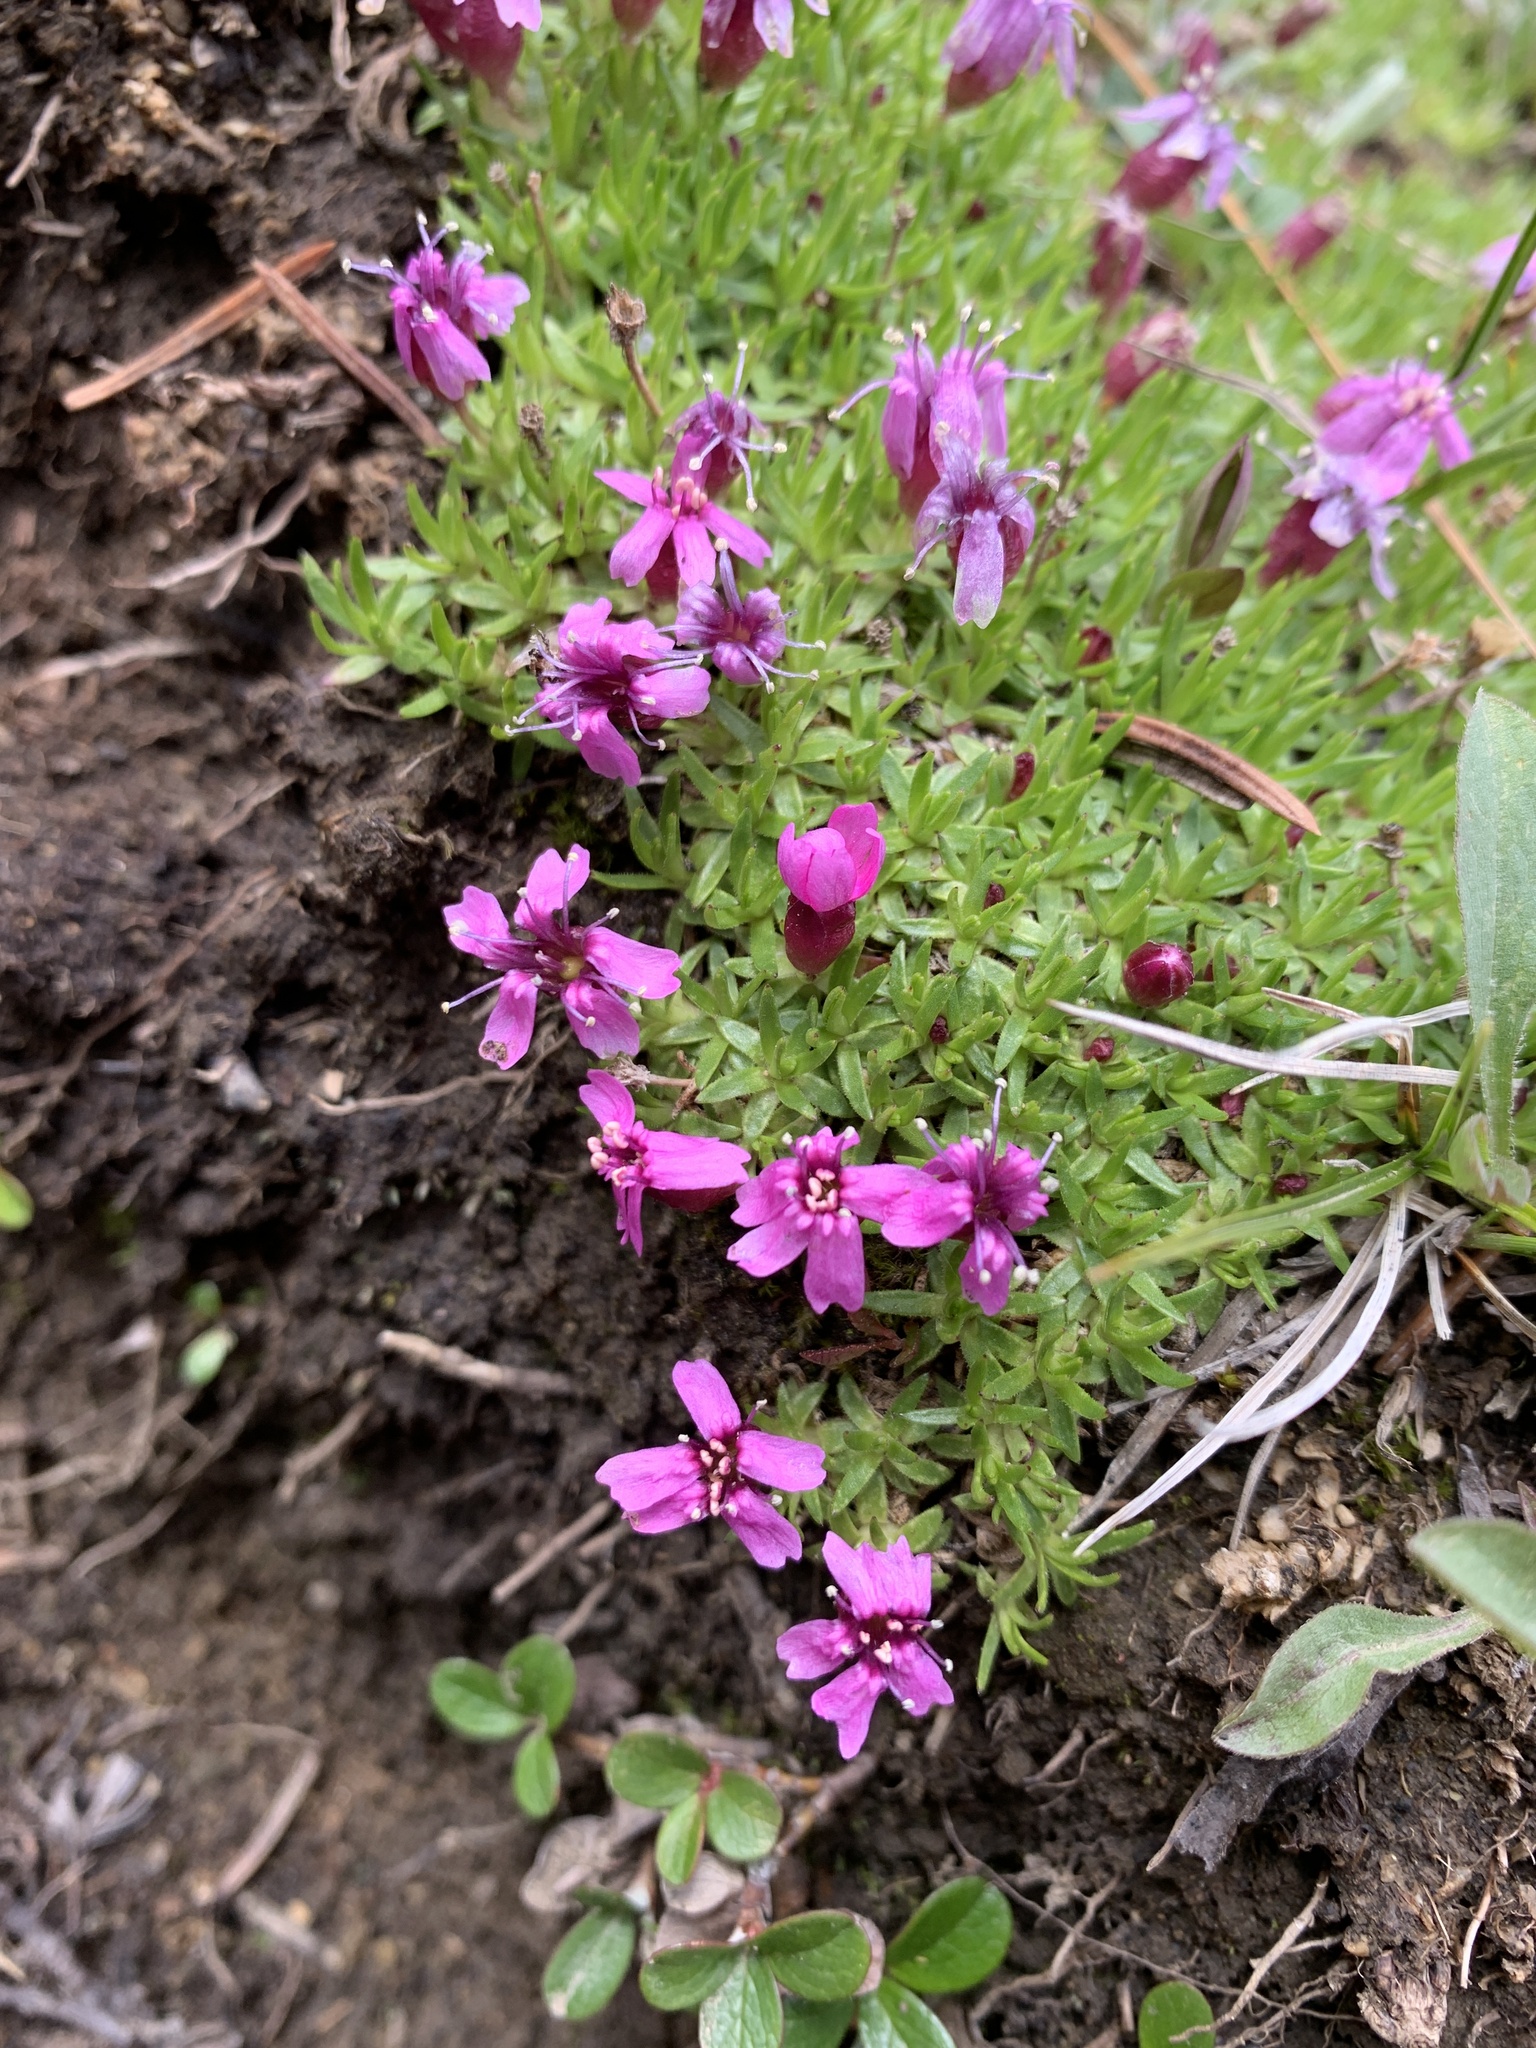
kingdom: Plantae
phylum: Tracheophyta
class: Magnoliopsida
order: Caryophyllales
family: Caryophyllaceae
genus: Silene
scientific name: Silene acaulis
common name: Moss campion
